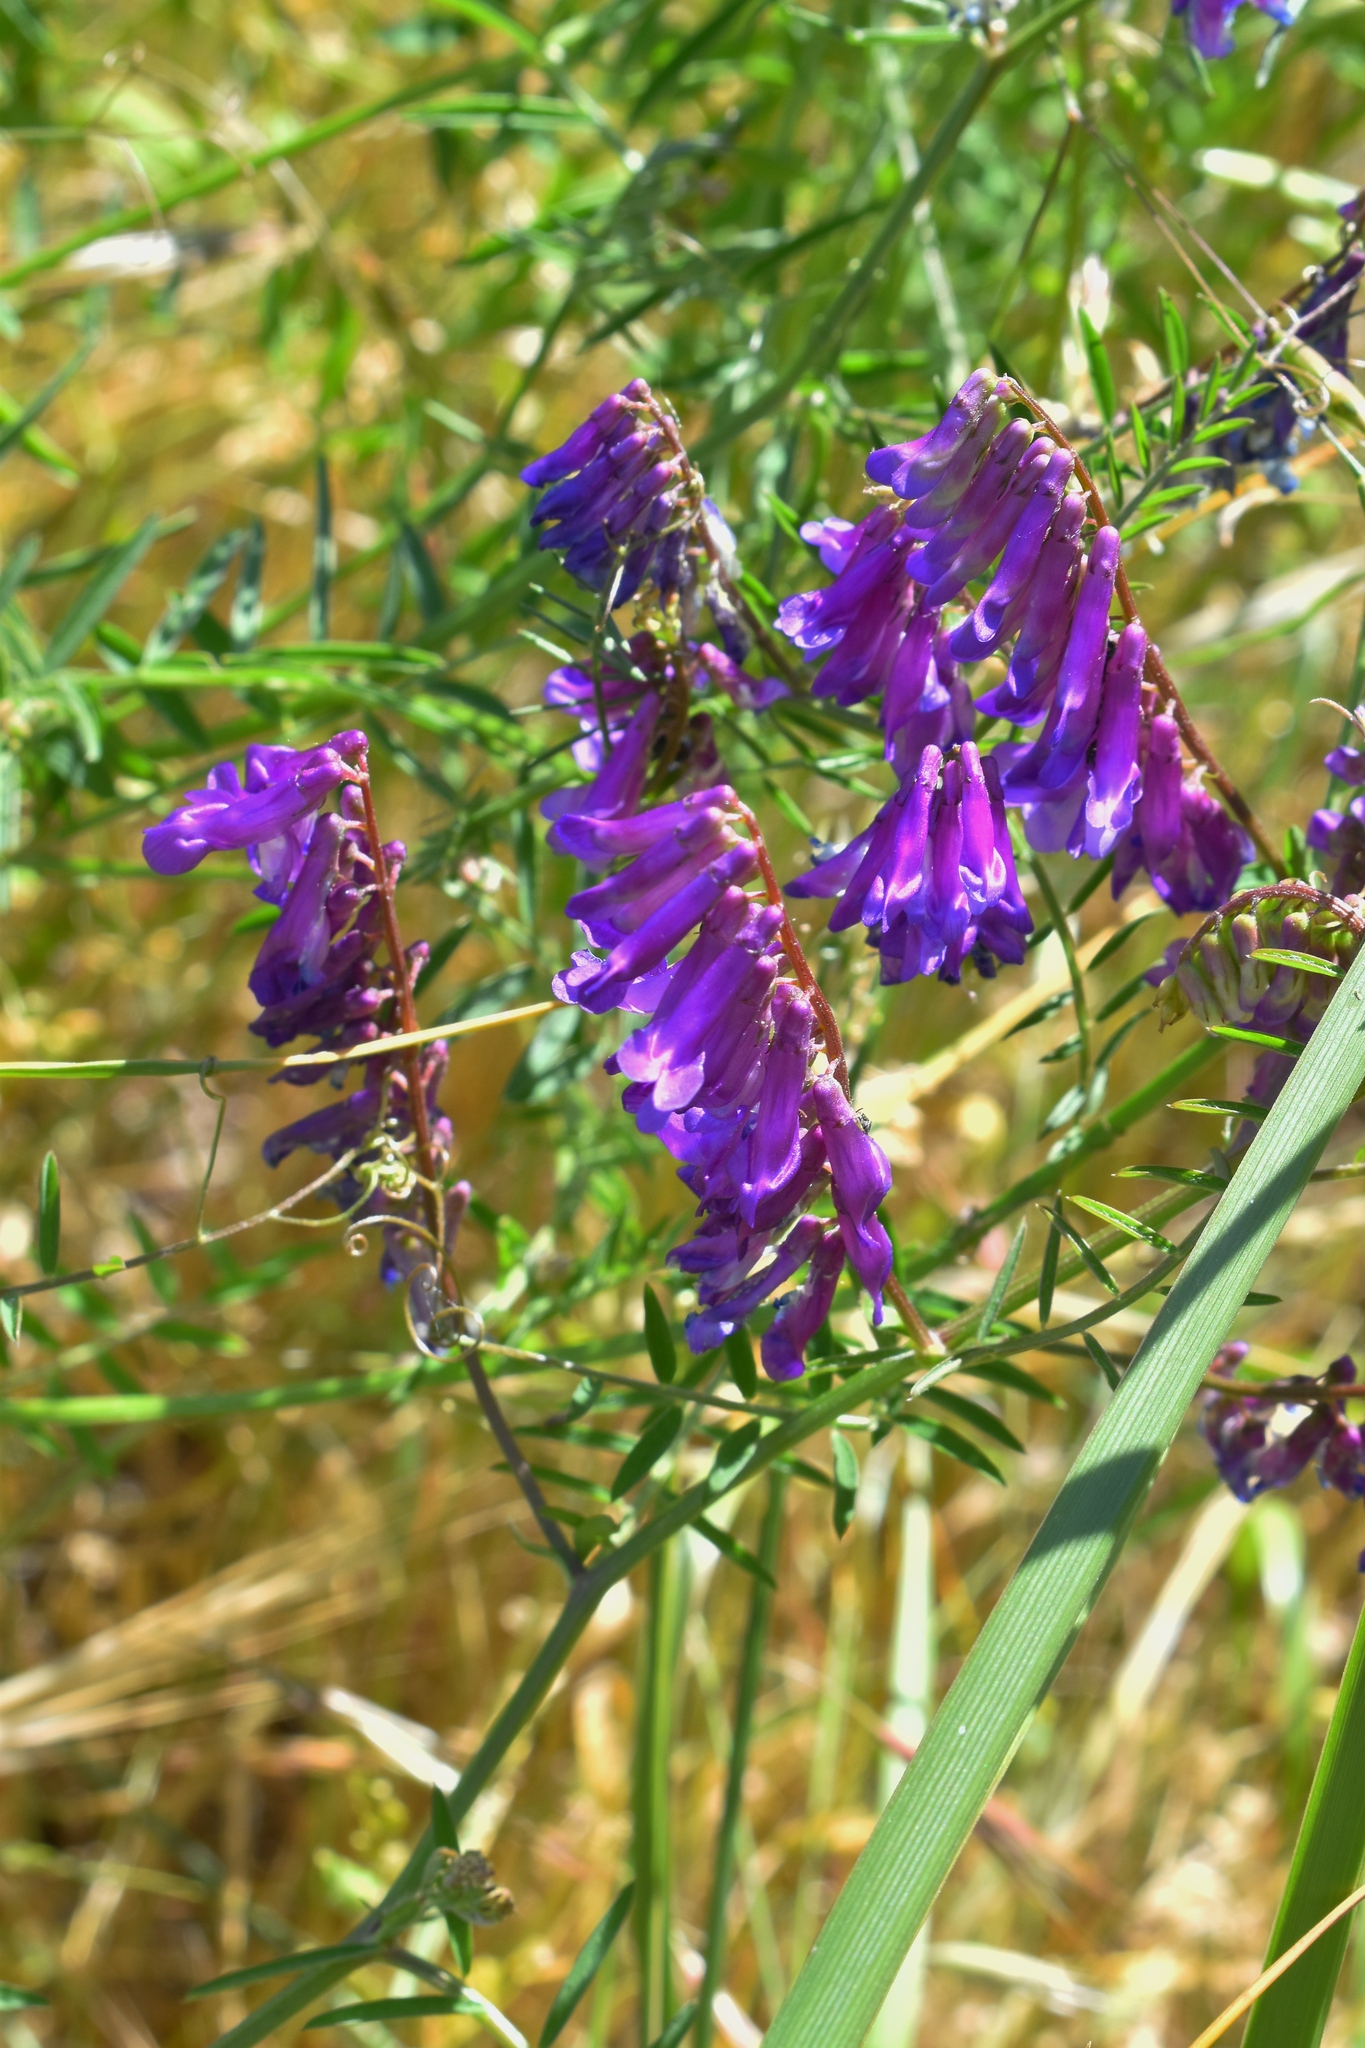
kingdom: Plantae
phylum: Tracheophyta
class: Magnoliopsida
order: Fabales
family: Fabaceae
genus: Vicia
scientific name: Vicia villosa
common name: Fodder vetch
